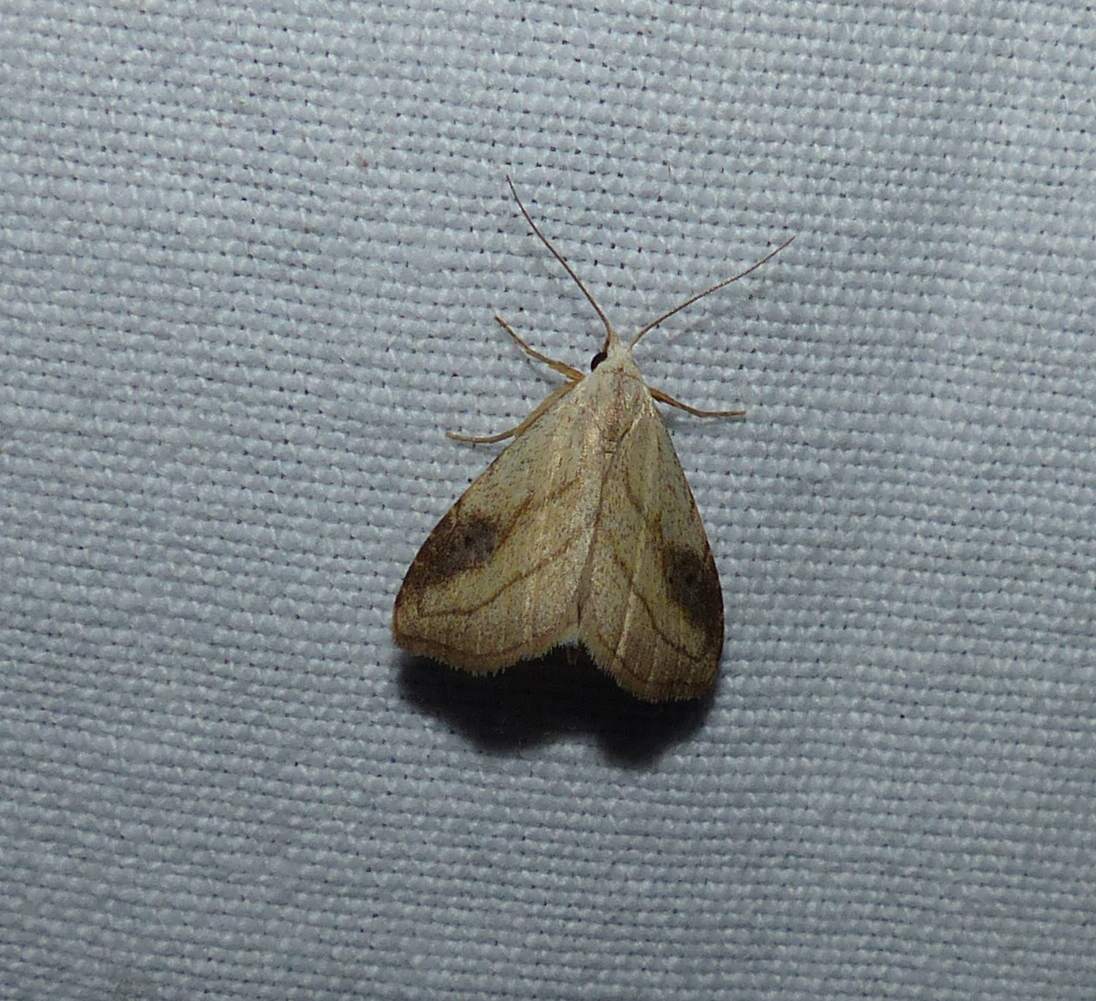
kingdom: Animalia
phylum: Arthropoda
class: Insecta
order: Lepidoptera
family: Erebidae
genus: Rivula
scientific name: Rivula propinqualis
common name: Spotted grass moth
